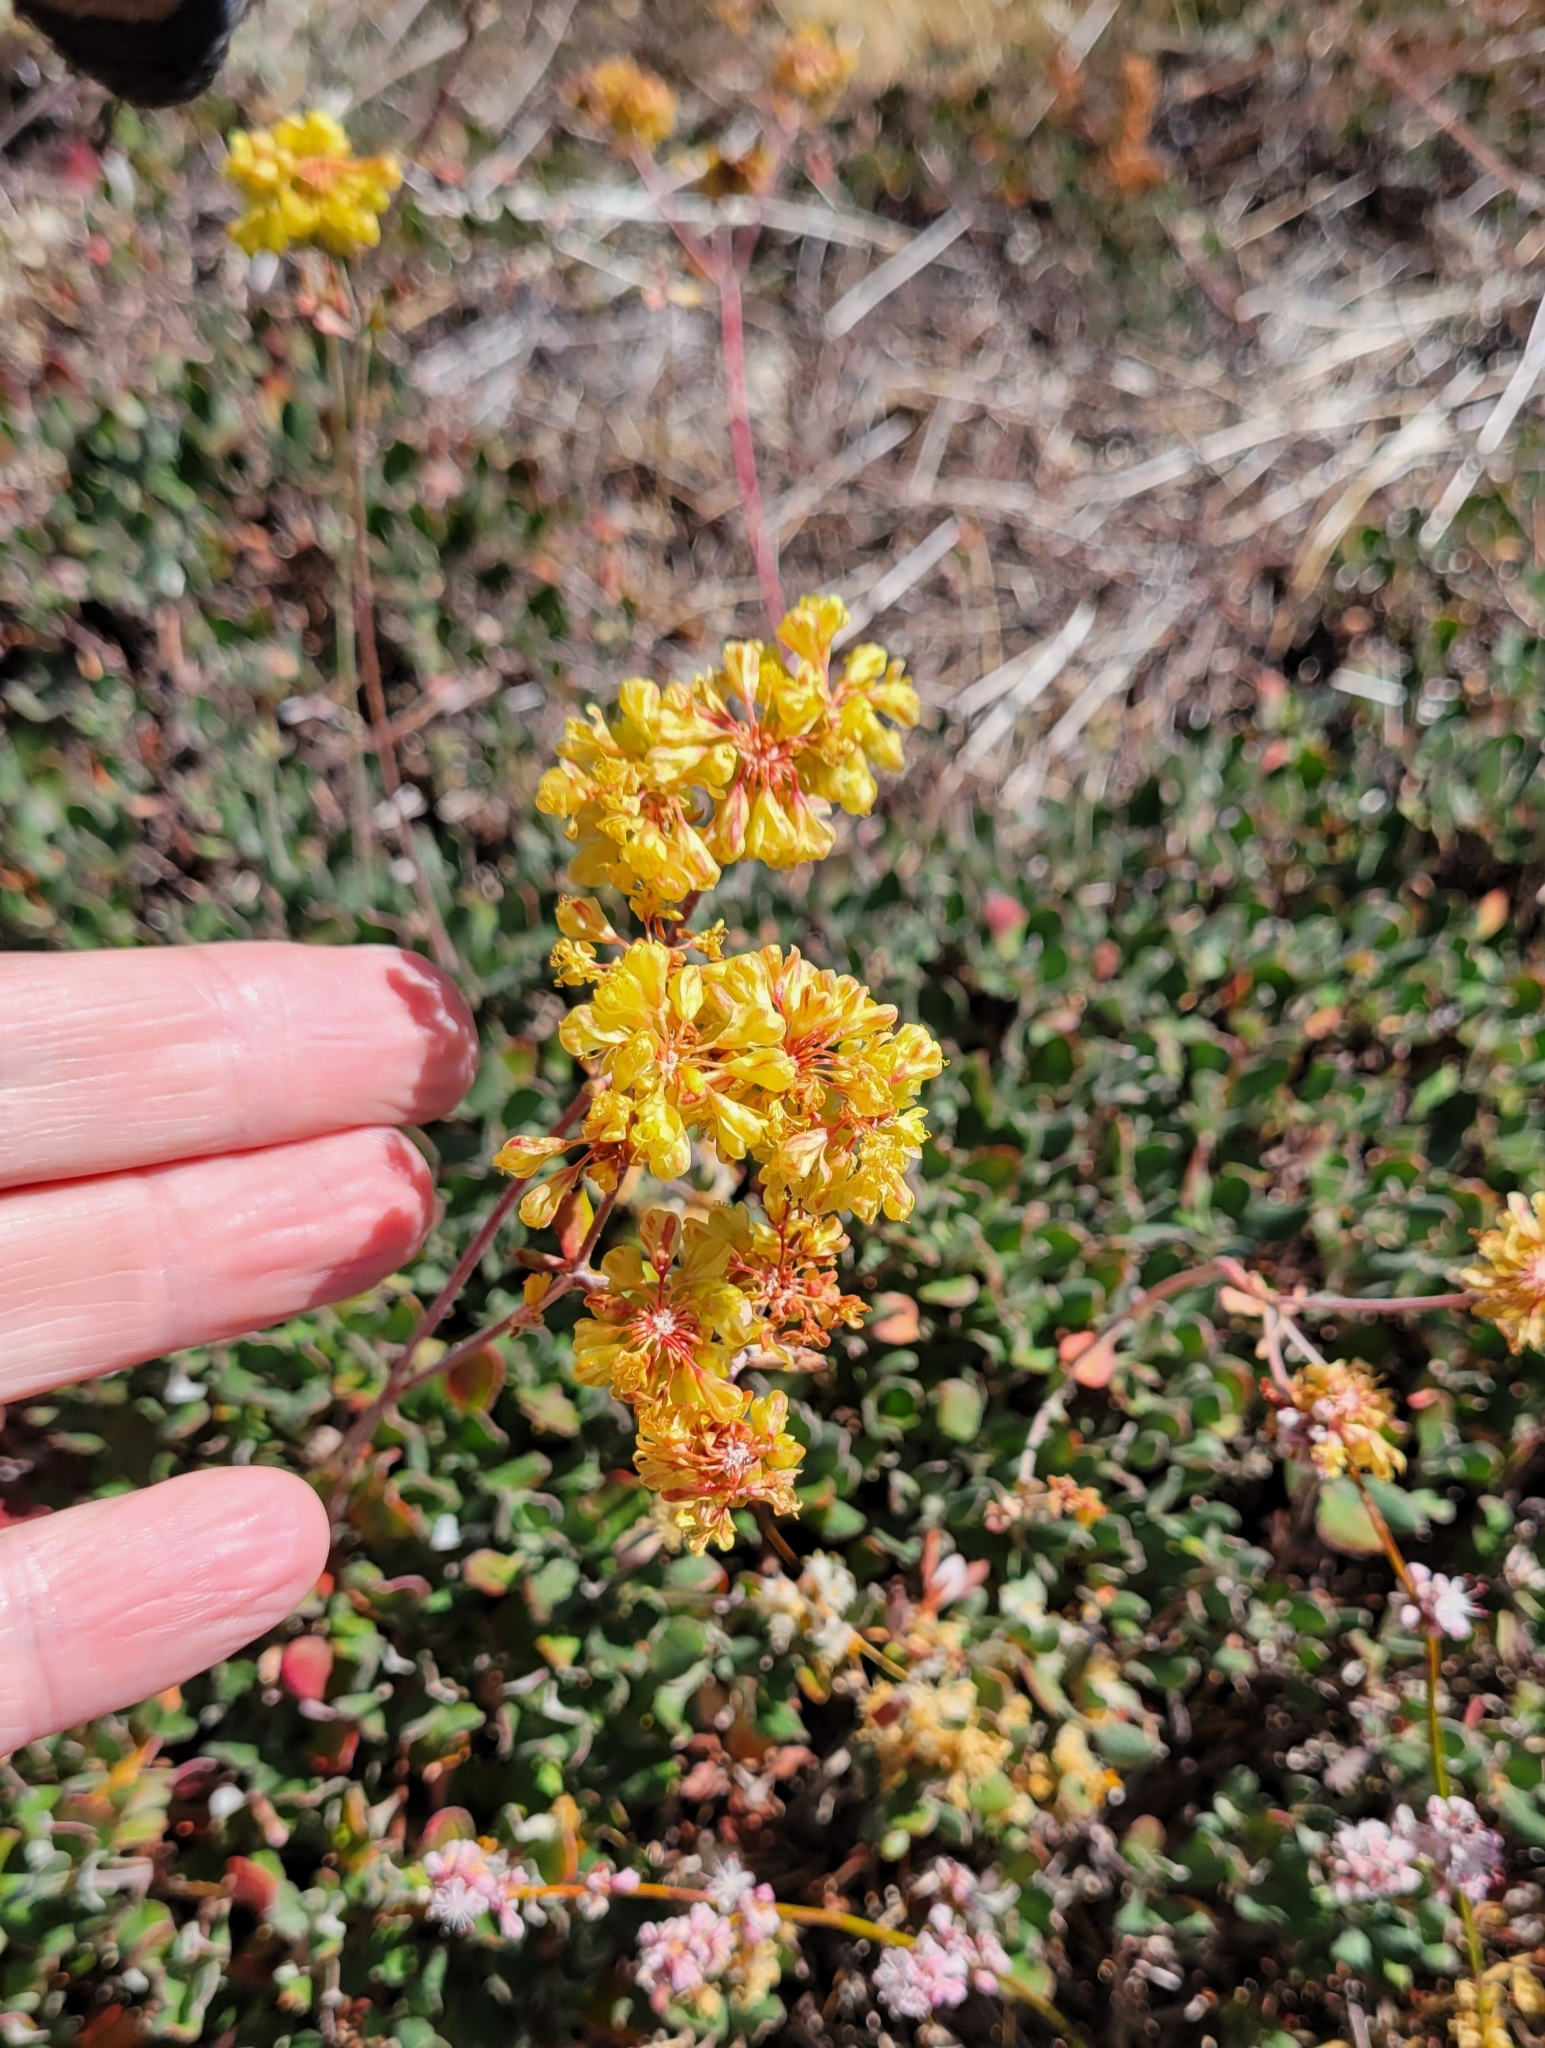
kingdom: Plantae
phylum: Tracheophyta
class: Magnoliopsida
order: Caryophyllales
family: Polygonaceae
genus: Eriogonum
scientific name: Eriogonum umbellatum
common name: Sulfur-buckwheat
